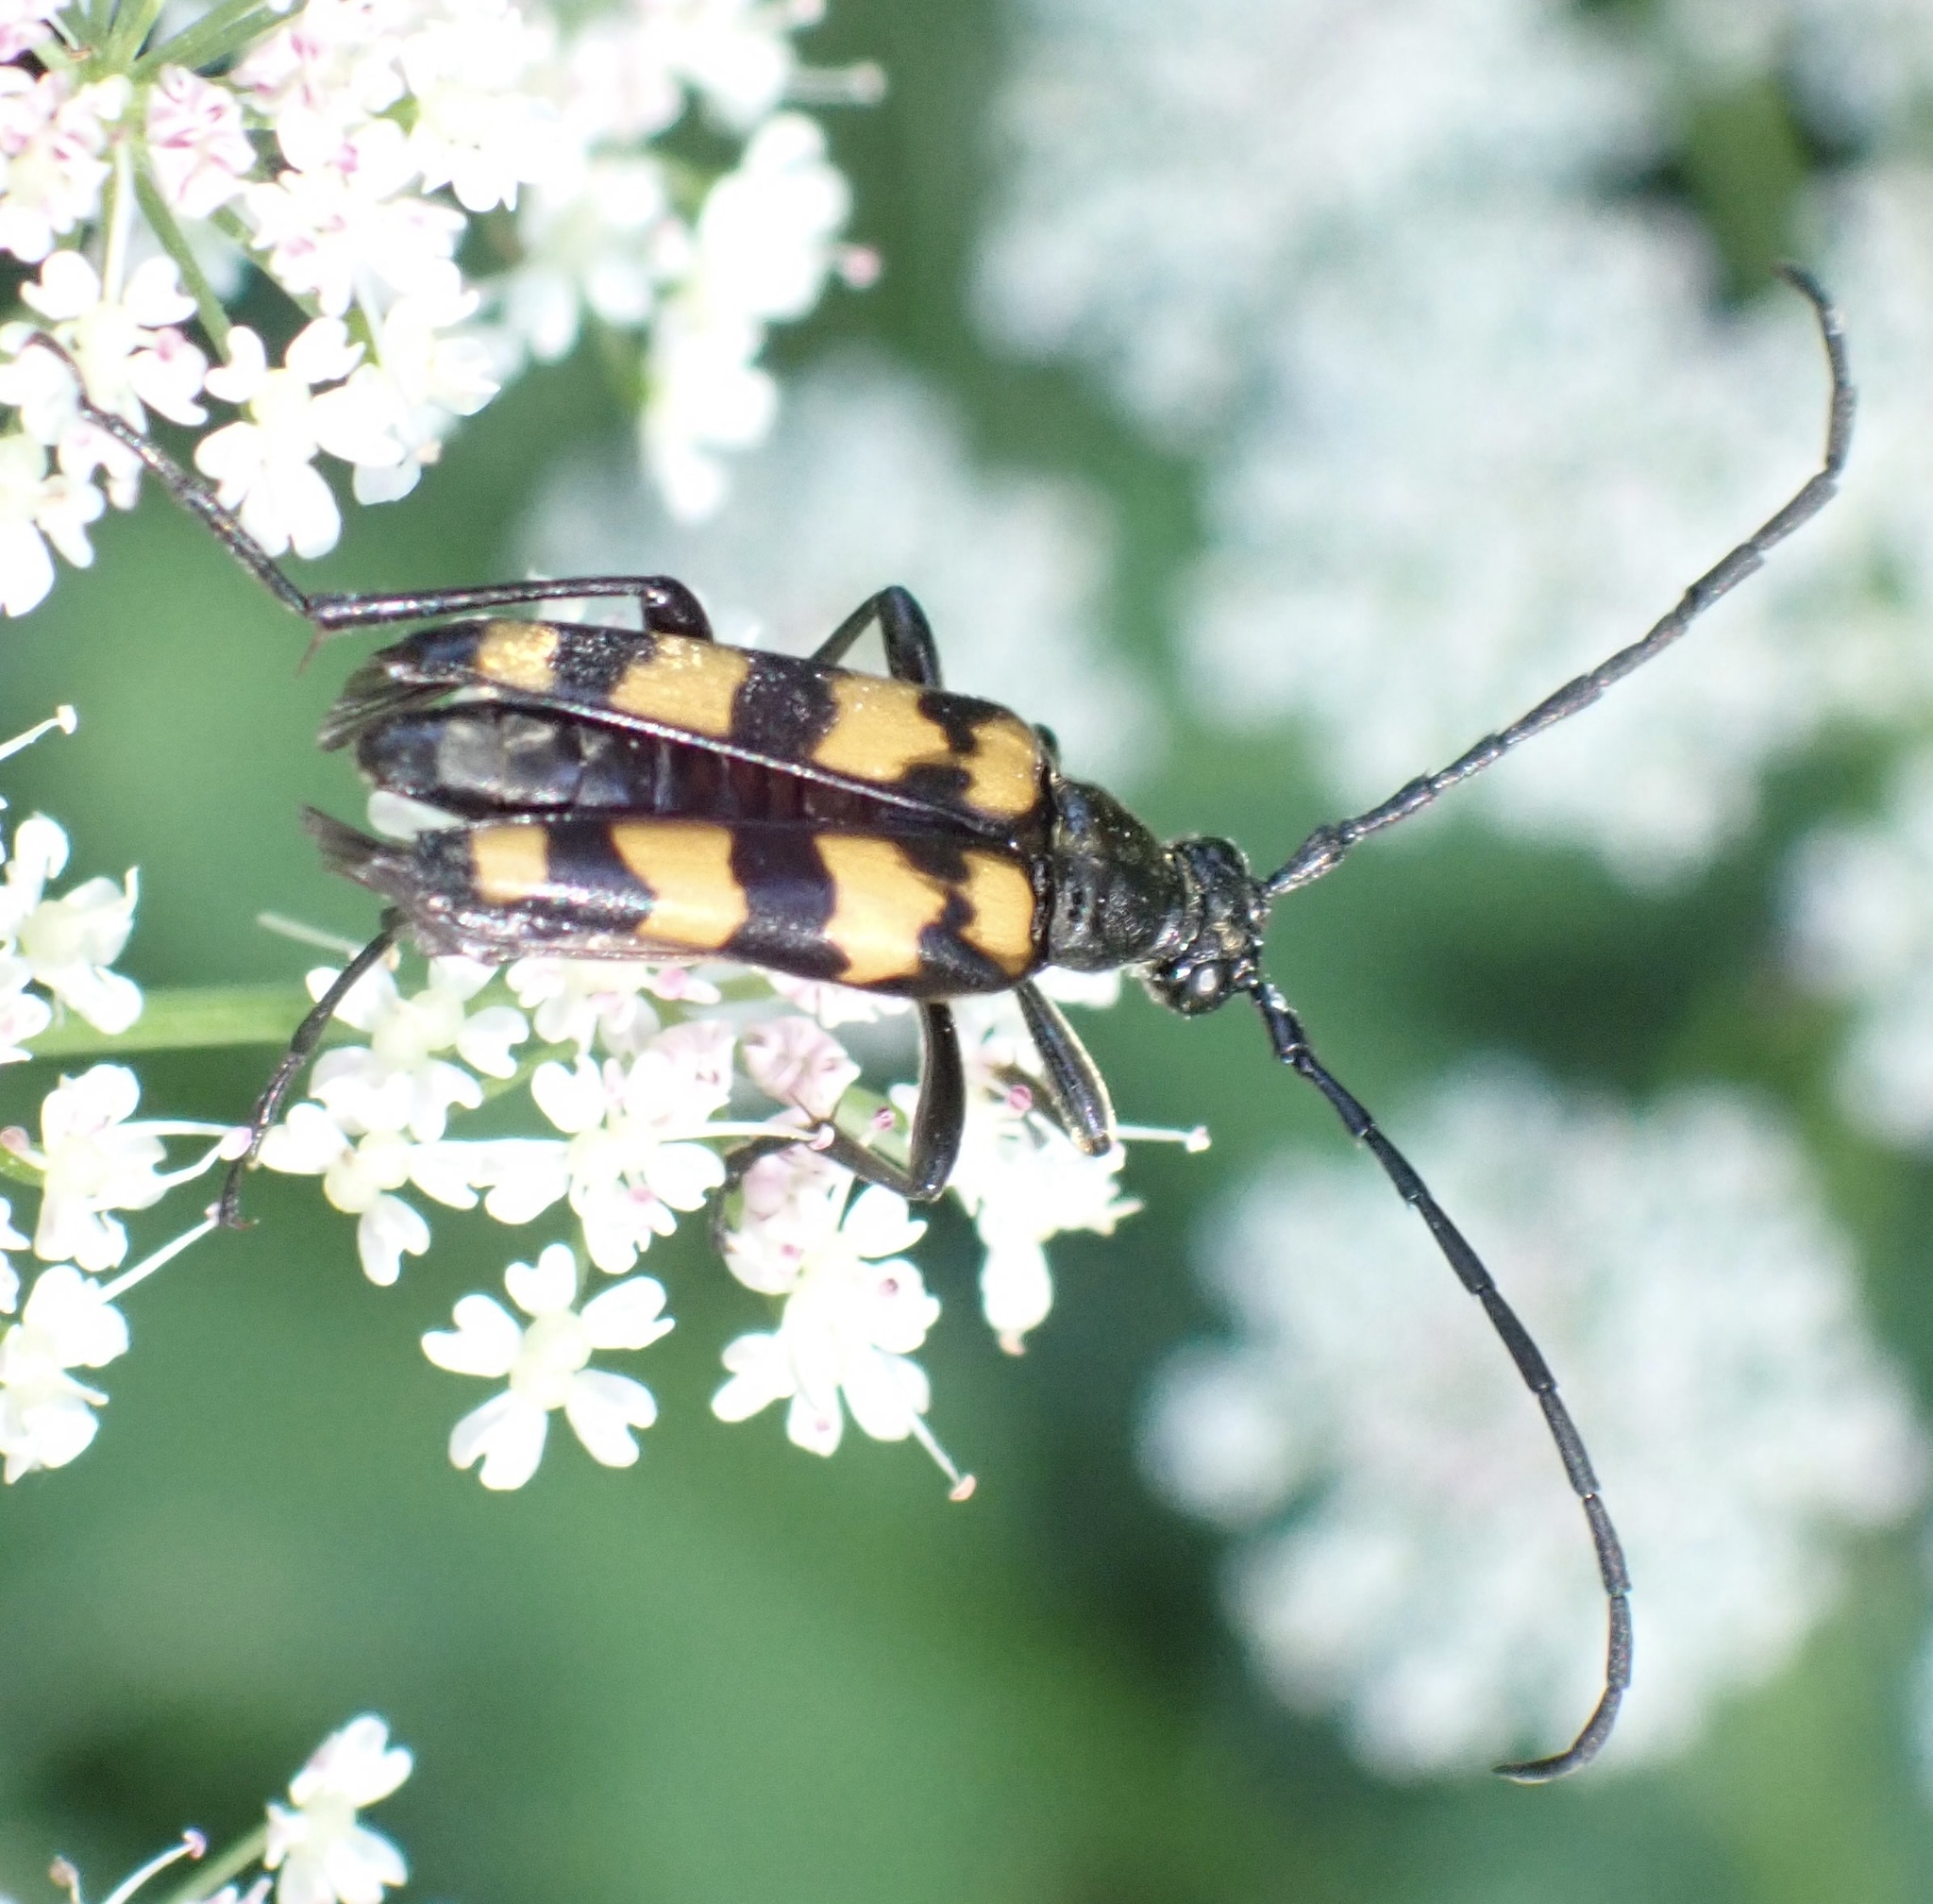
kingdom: Animalia
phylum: Arthropoda
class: Insecta
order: Coleoptera
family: Cerambycidae
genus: Leptura
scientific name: Leptura quadrifasciata
